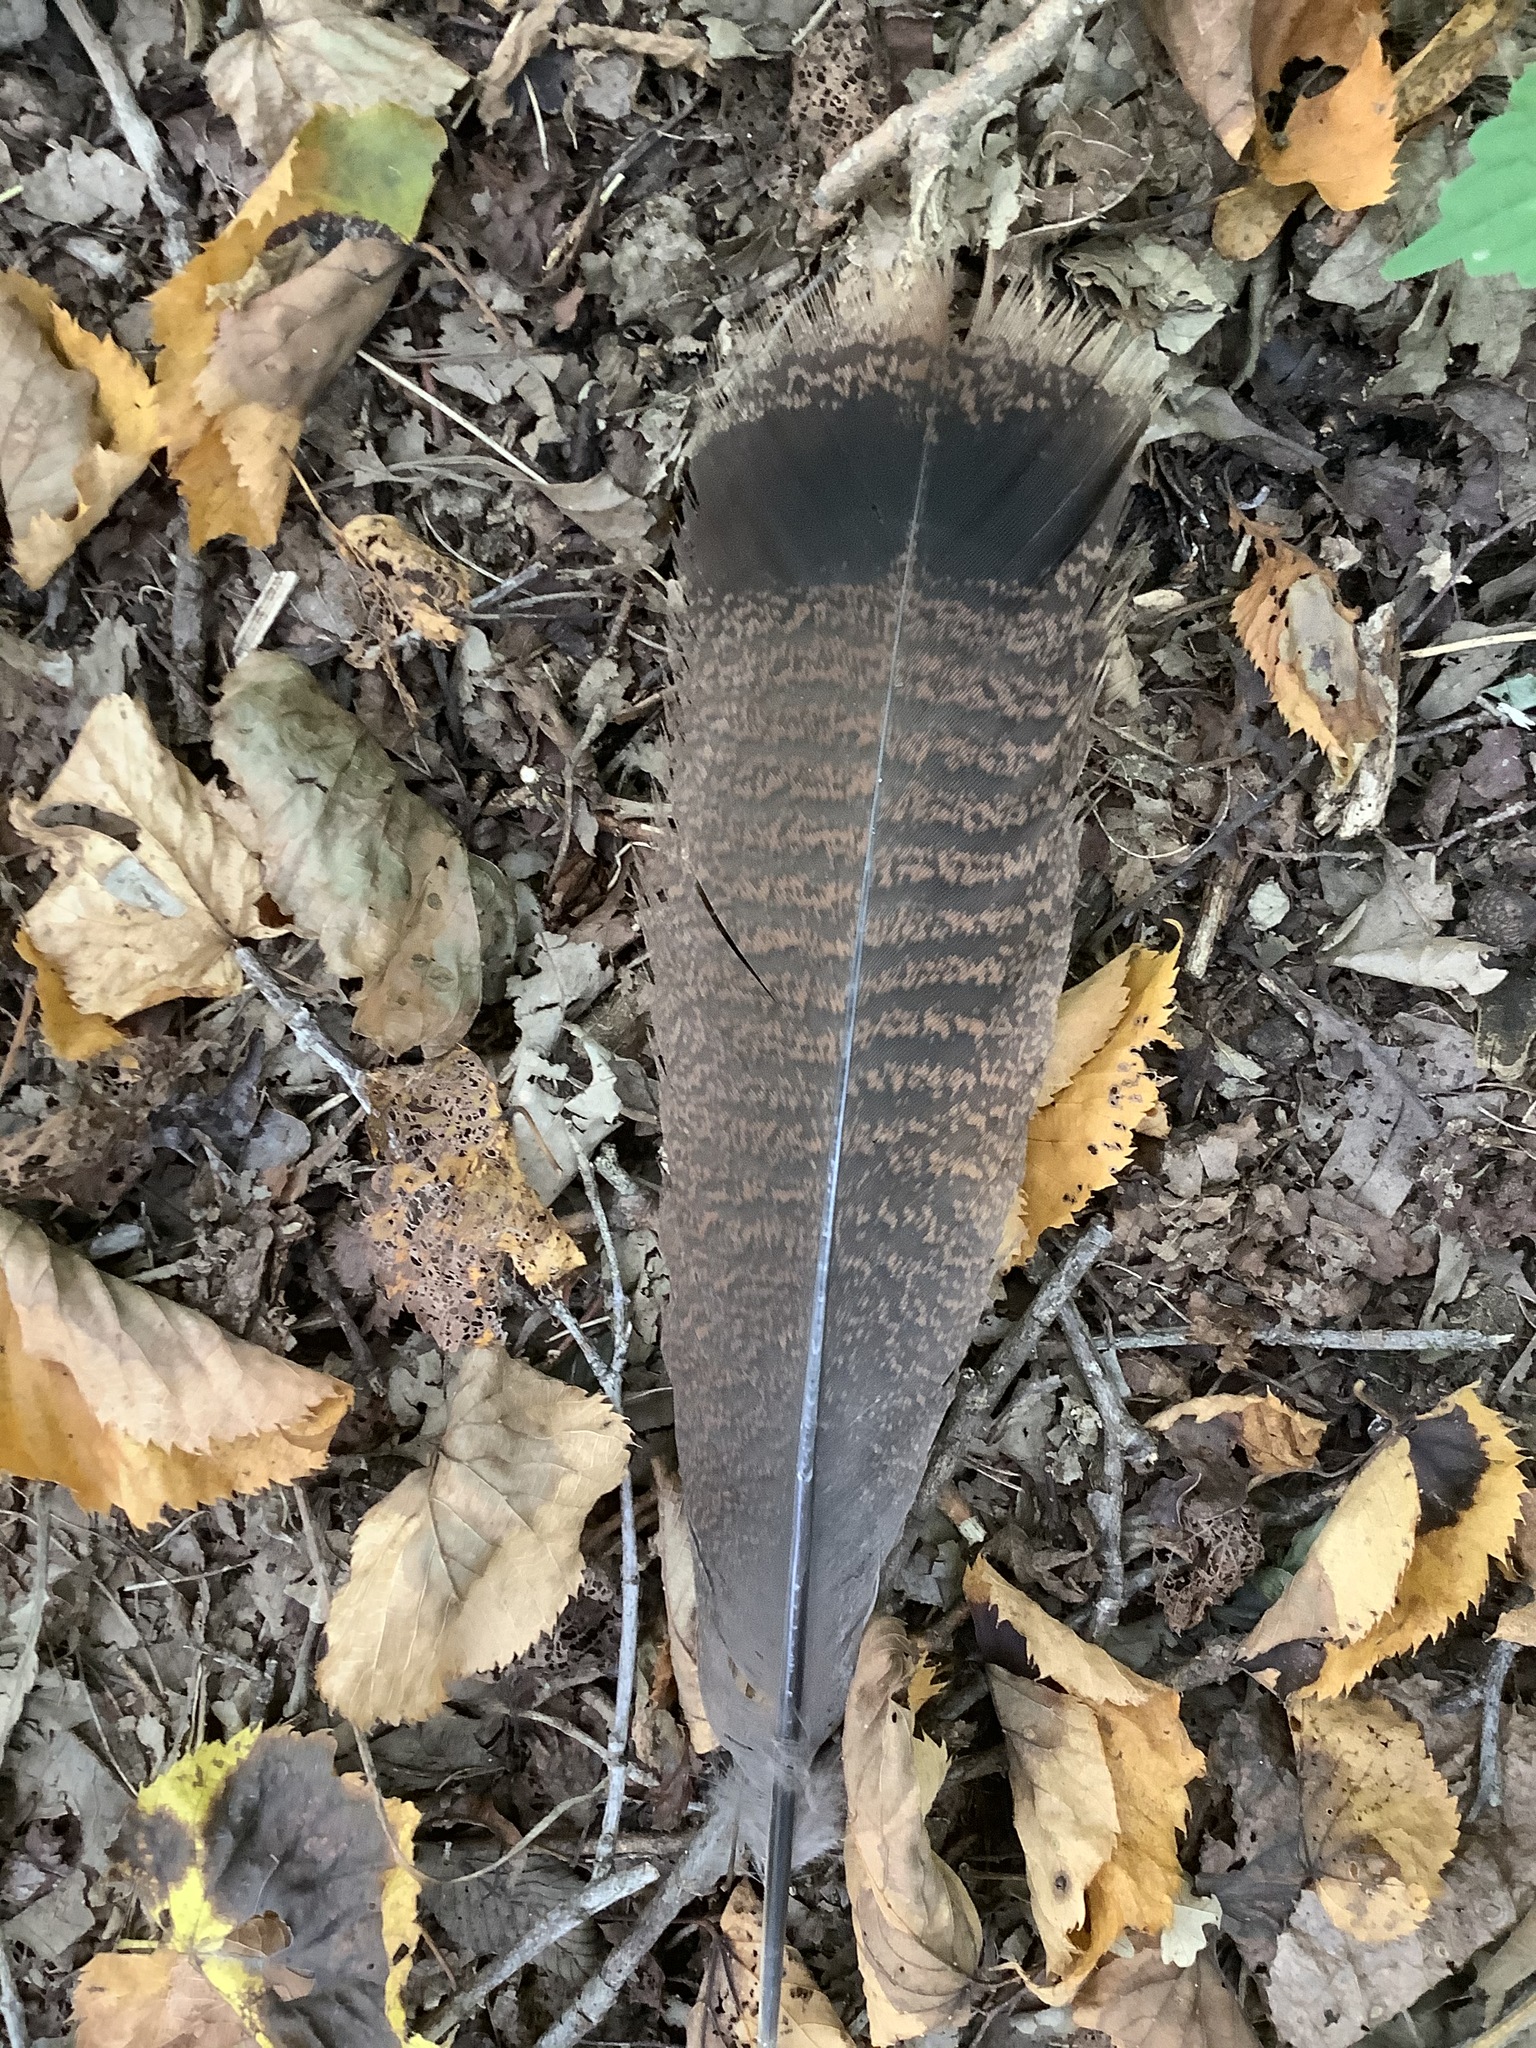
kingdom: Animalia
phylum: Chordata
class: Aves
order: Galliformes
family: Phasianidae
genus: Meleagris
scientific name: Meleagris gallopavo
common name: Wild turkey
